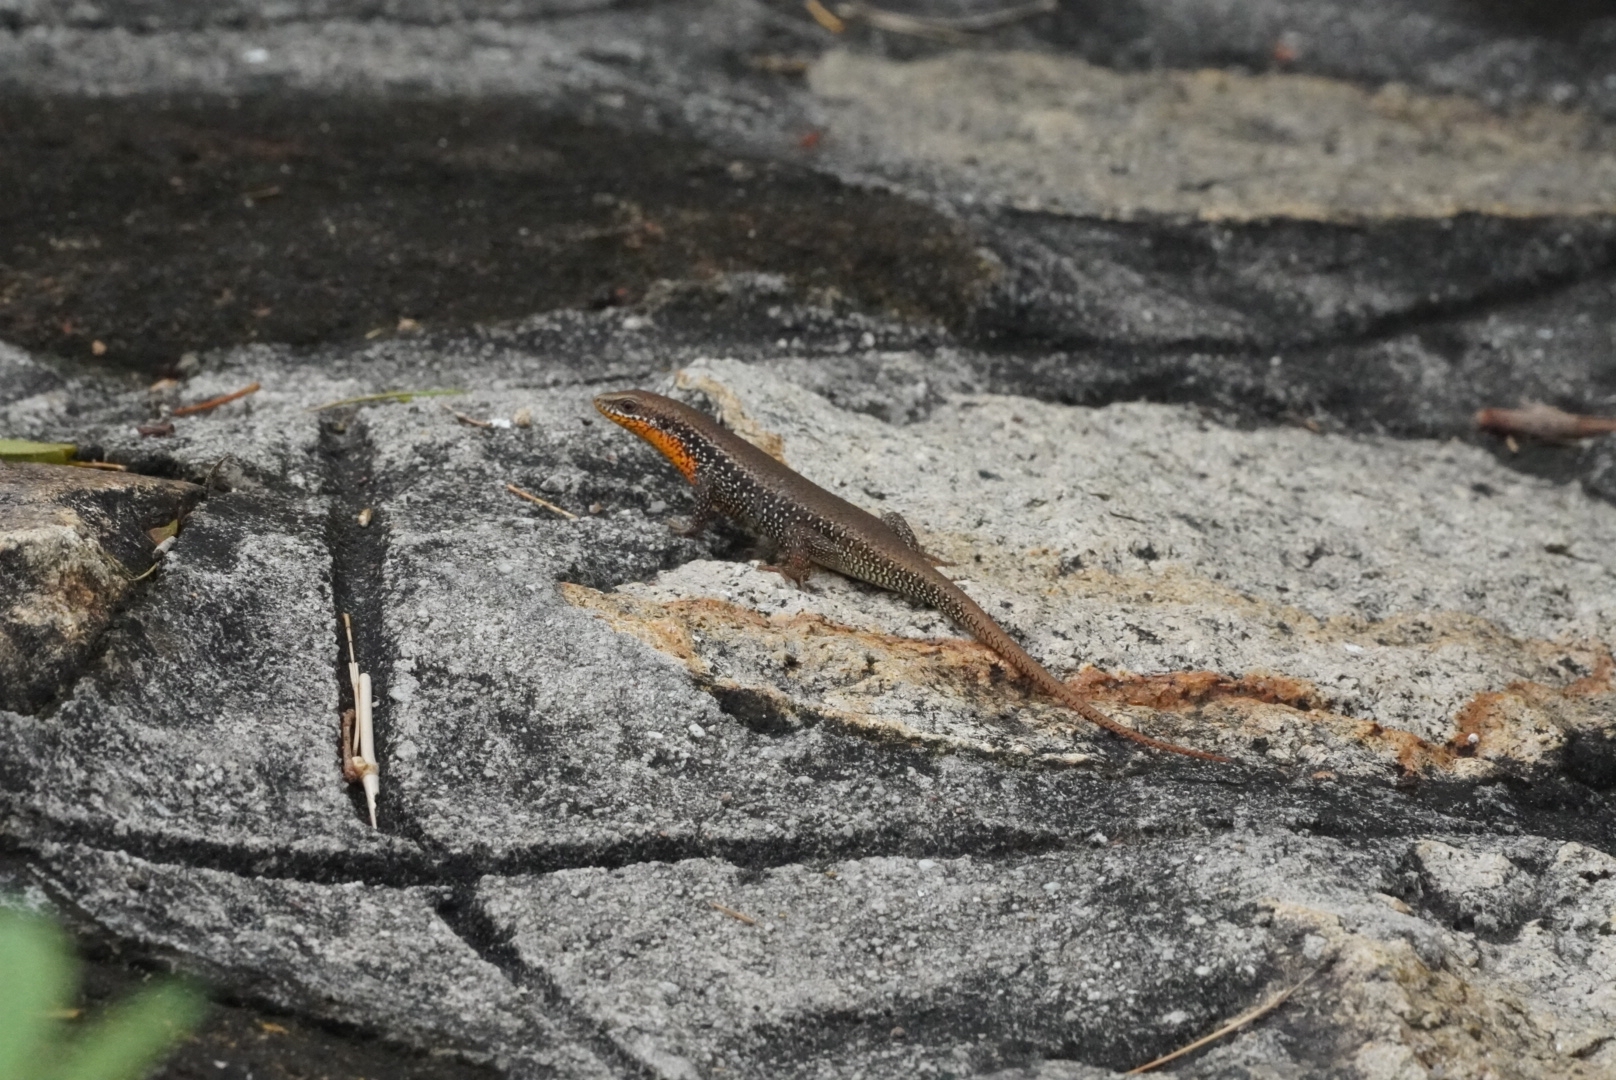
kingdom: Animalia
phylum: Chordata
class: Squamata
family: Scincidae
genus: Eutropis
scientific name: Eutropis macularia
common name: Bronze mabuya
